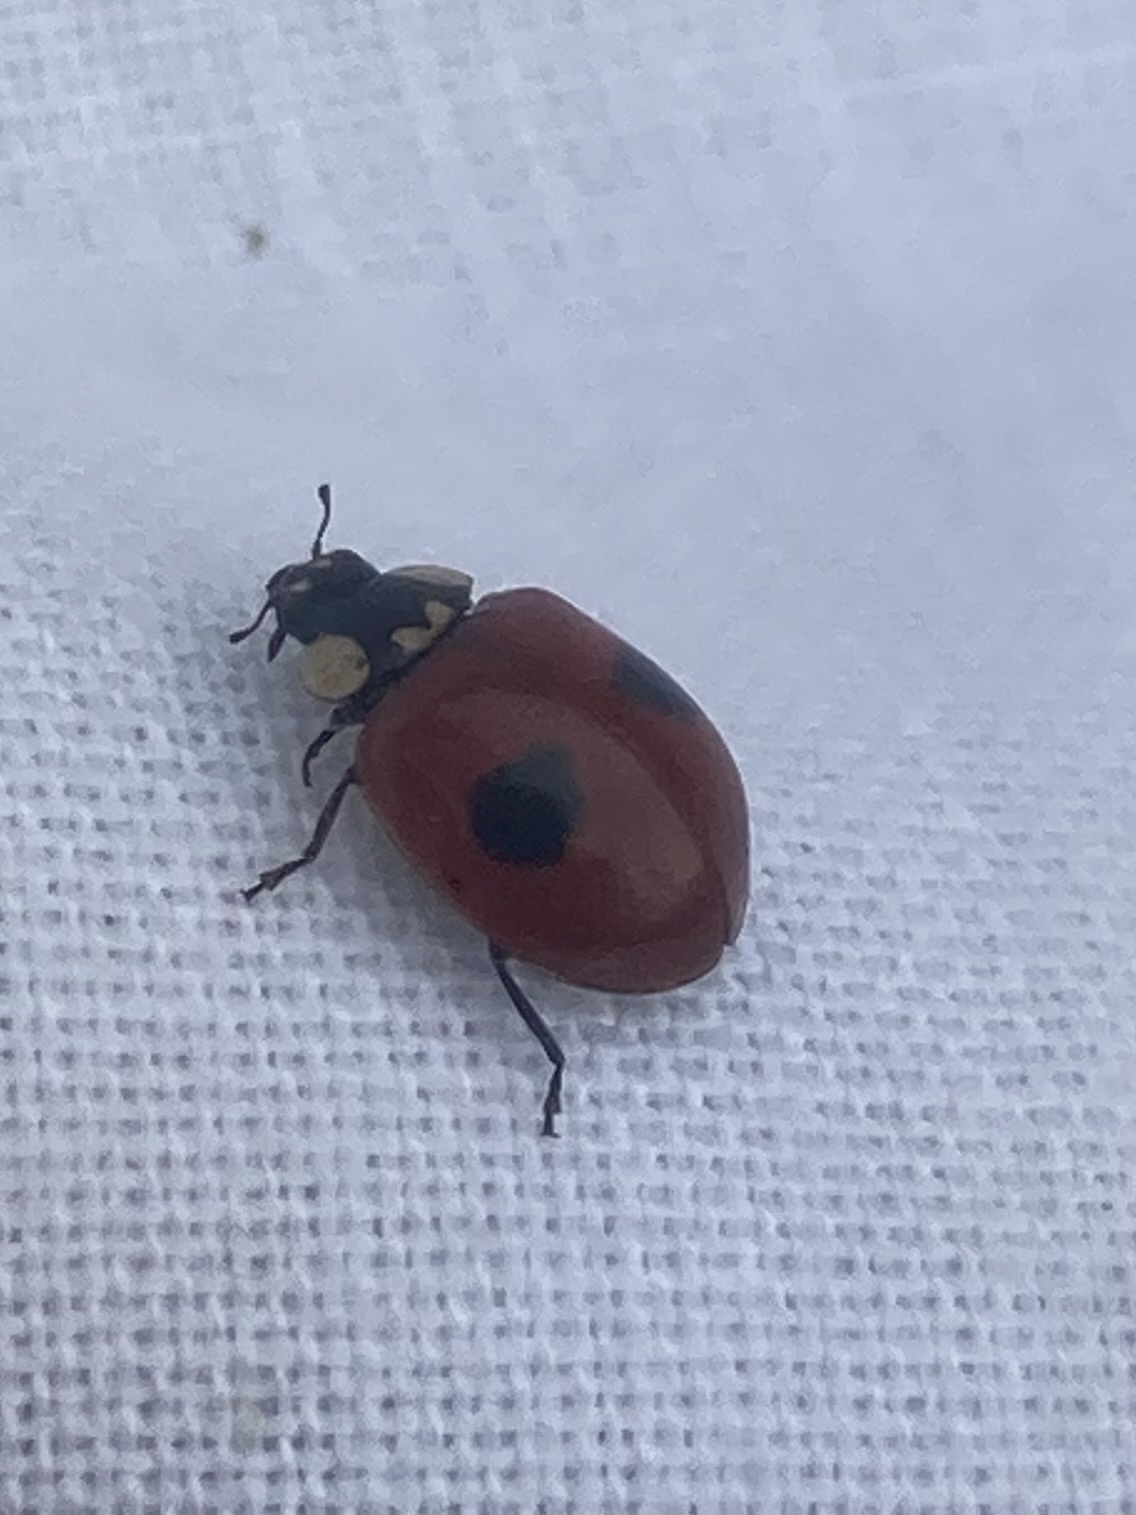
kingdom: Animalia
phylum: Arthropoda
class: Insecta
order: Coleoptera
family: Coccinellidae
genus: Adalia
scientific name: Adalia bipunctata
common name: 2-spot ladybird
